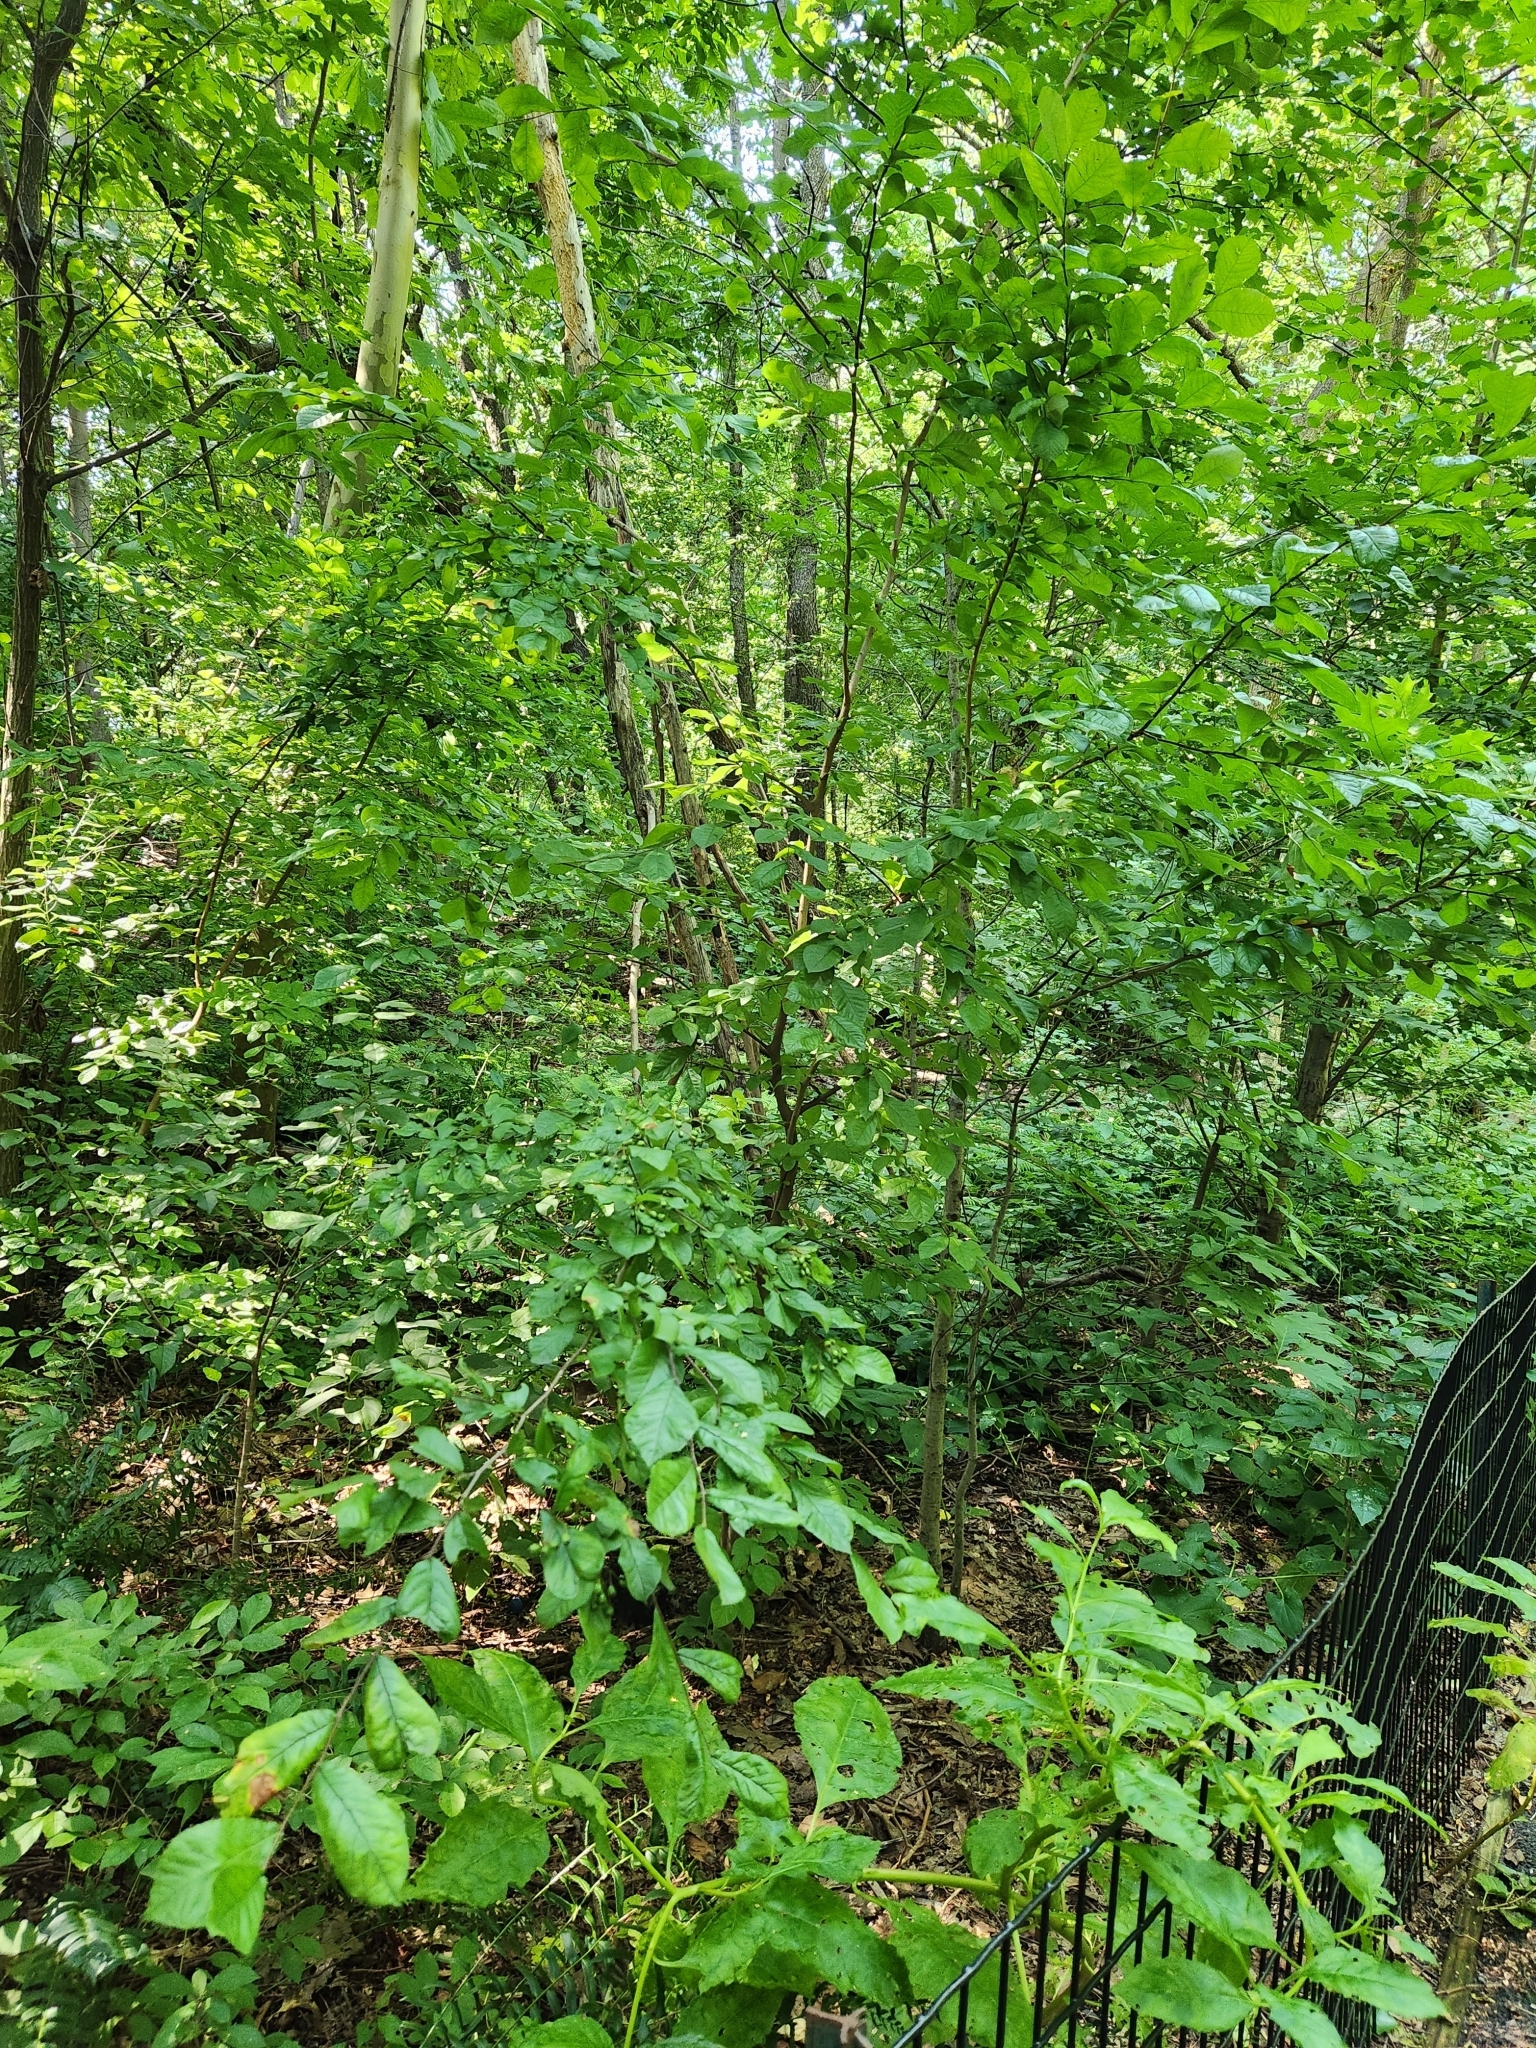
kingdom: Plantae
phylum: Tracheophyta
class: Magnoliopsida
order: Rosales
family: Rosaceae
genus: Pourthiaea
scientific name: Pourthiaea villosa
